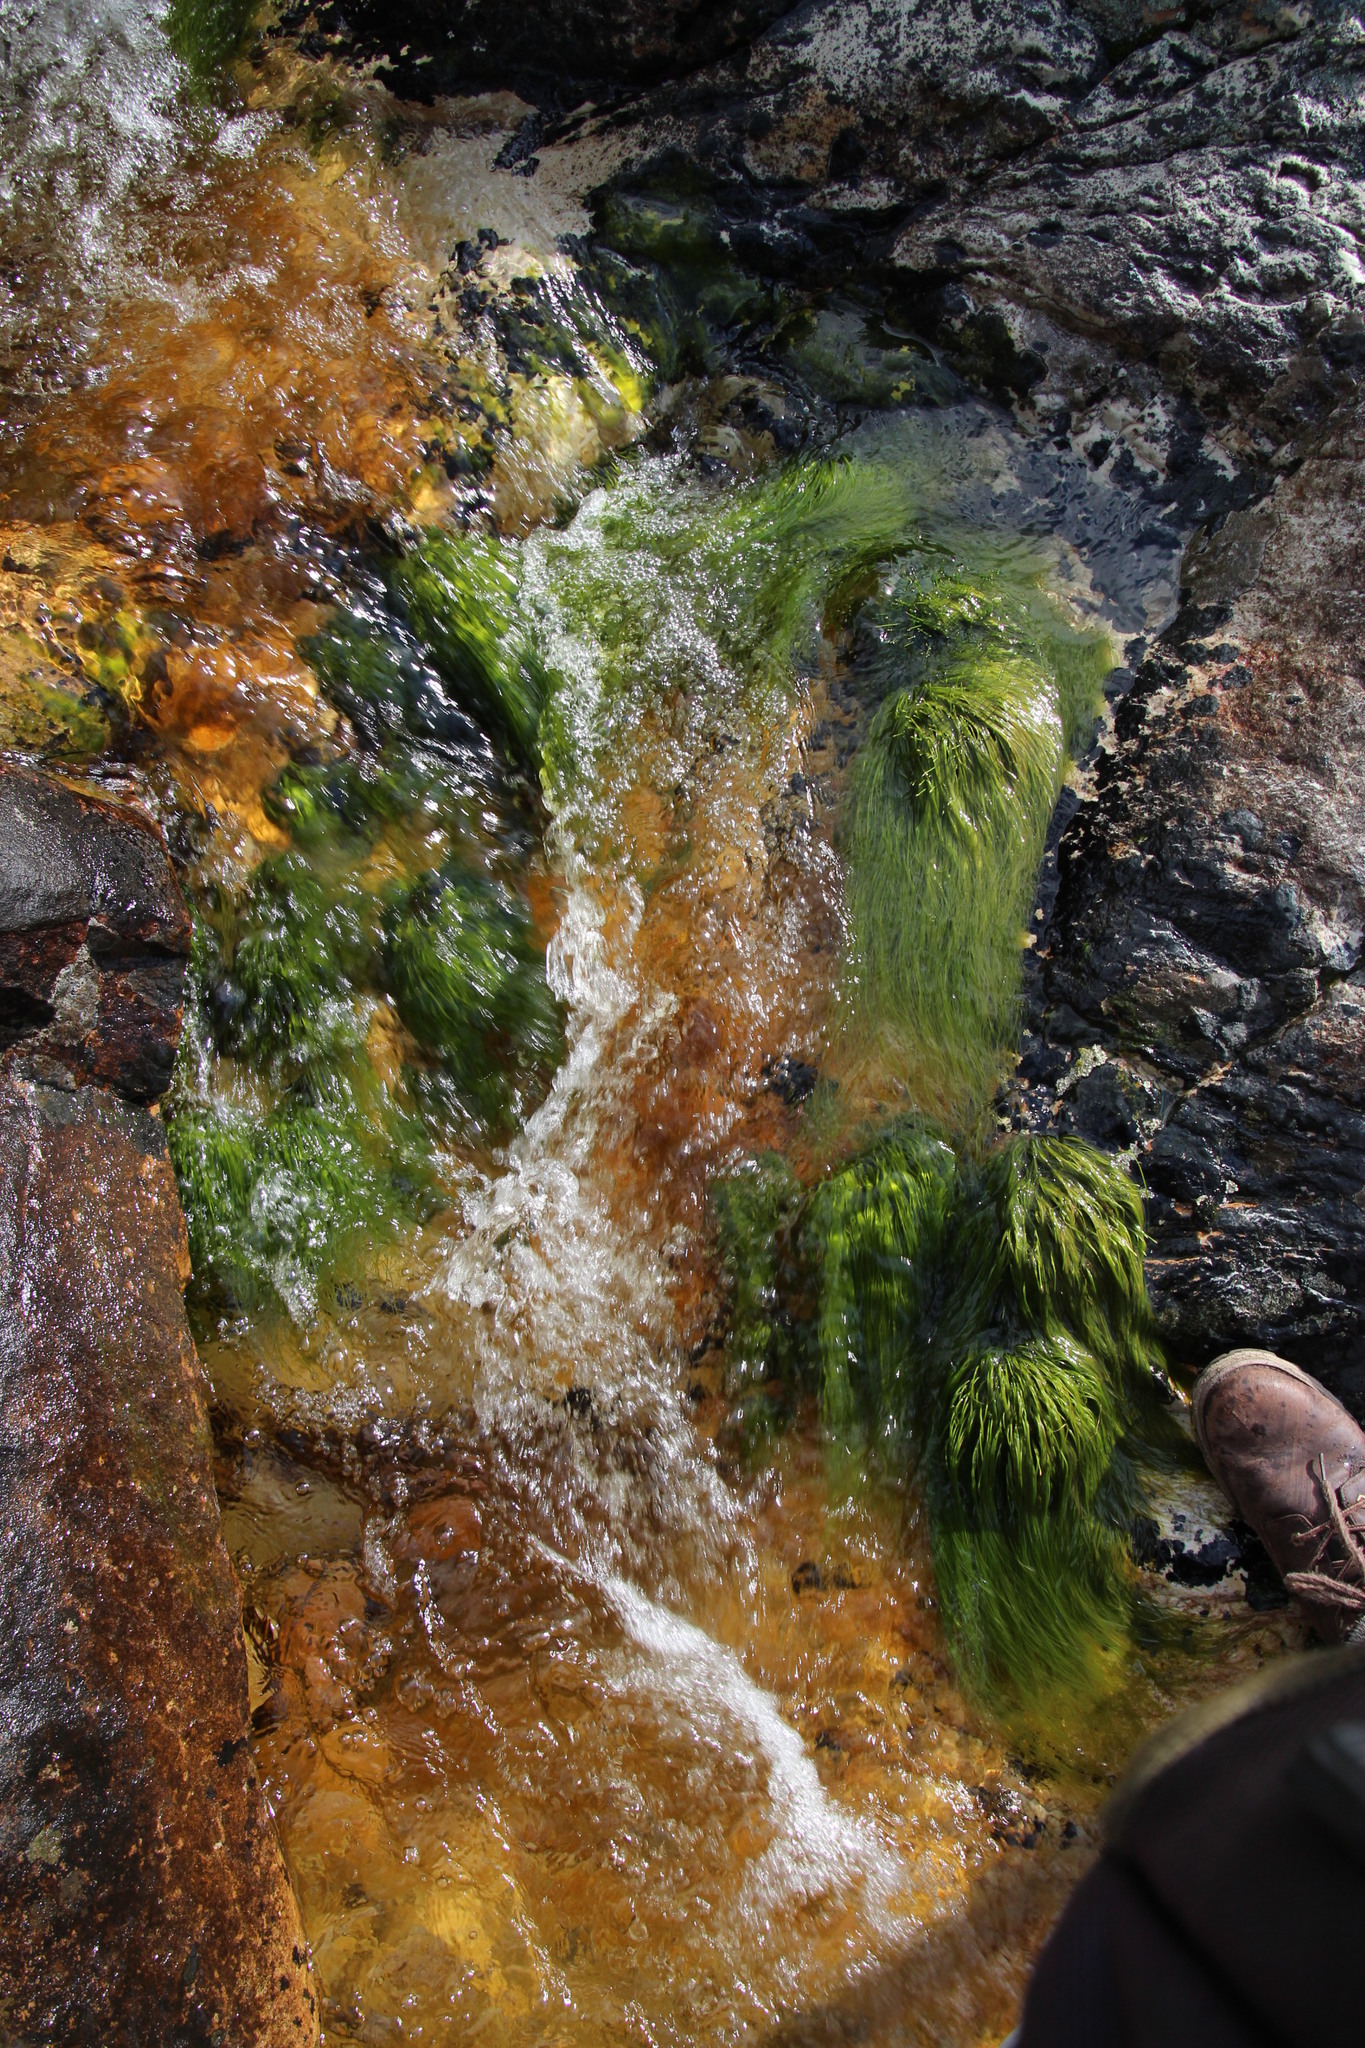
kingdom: Plantae
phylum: Tracheophyta
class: Liliopsida
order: Poales
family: Cyperaceae
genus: Isolepis
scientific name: Isolepis digitata
